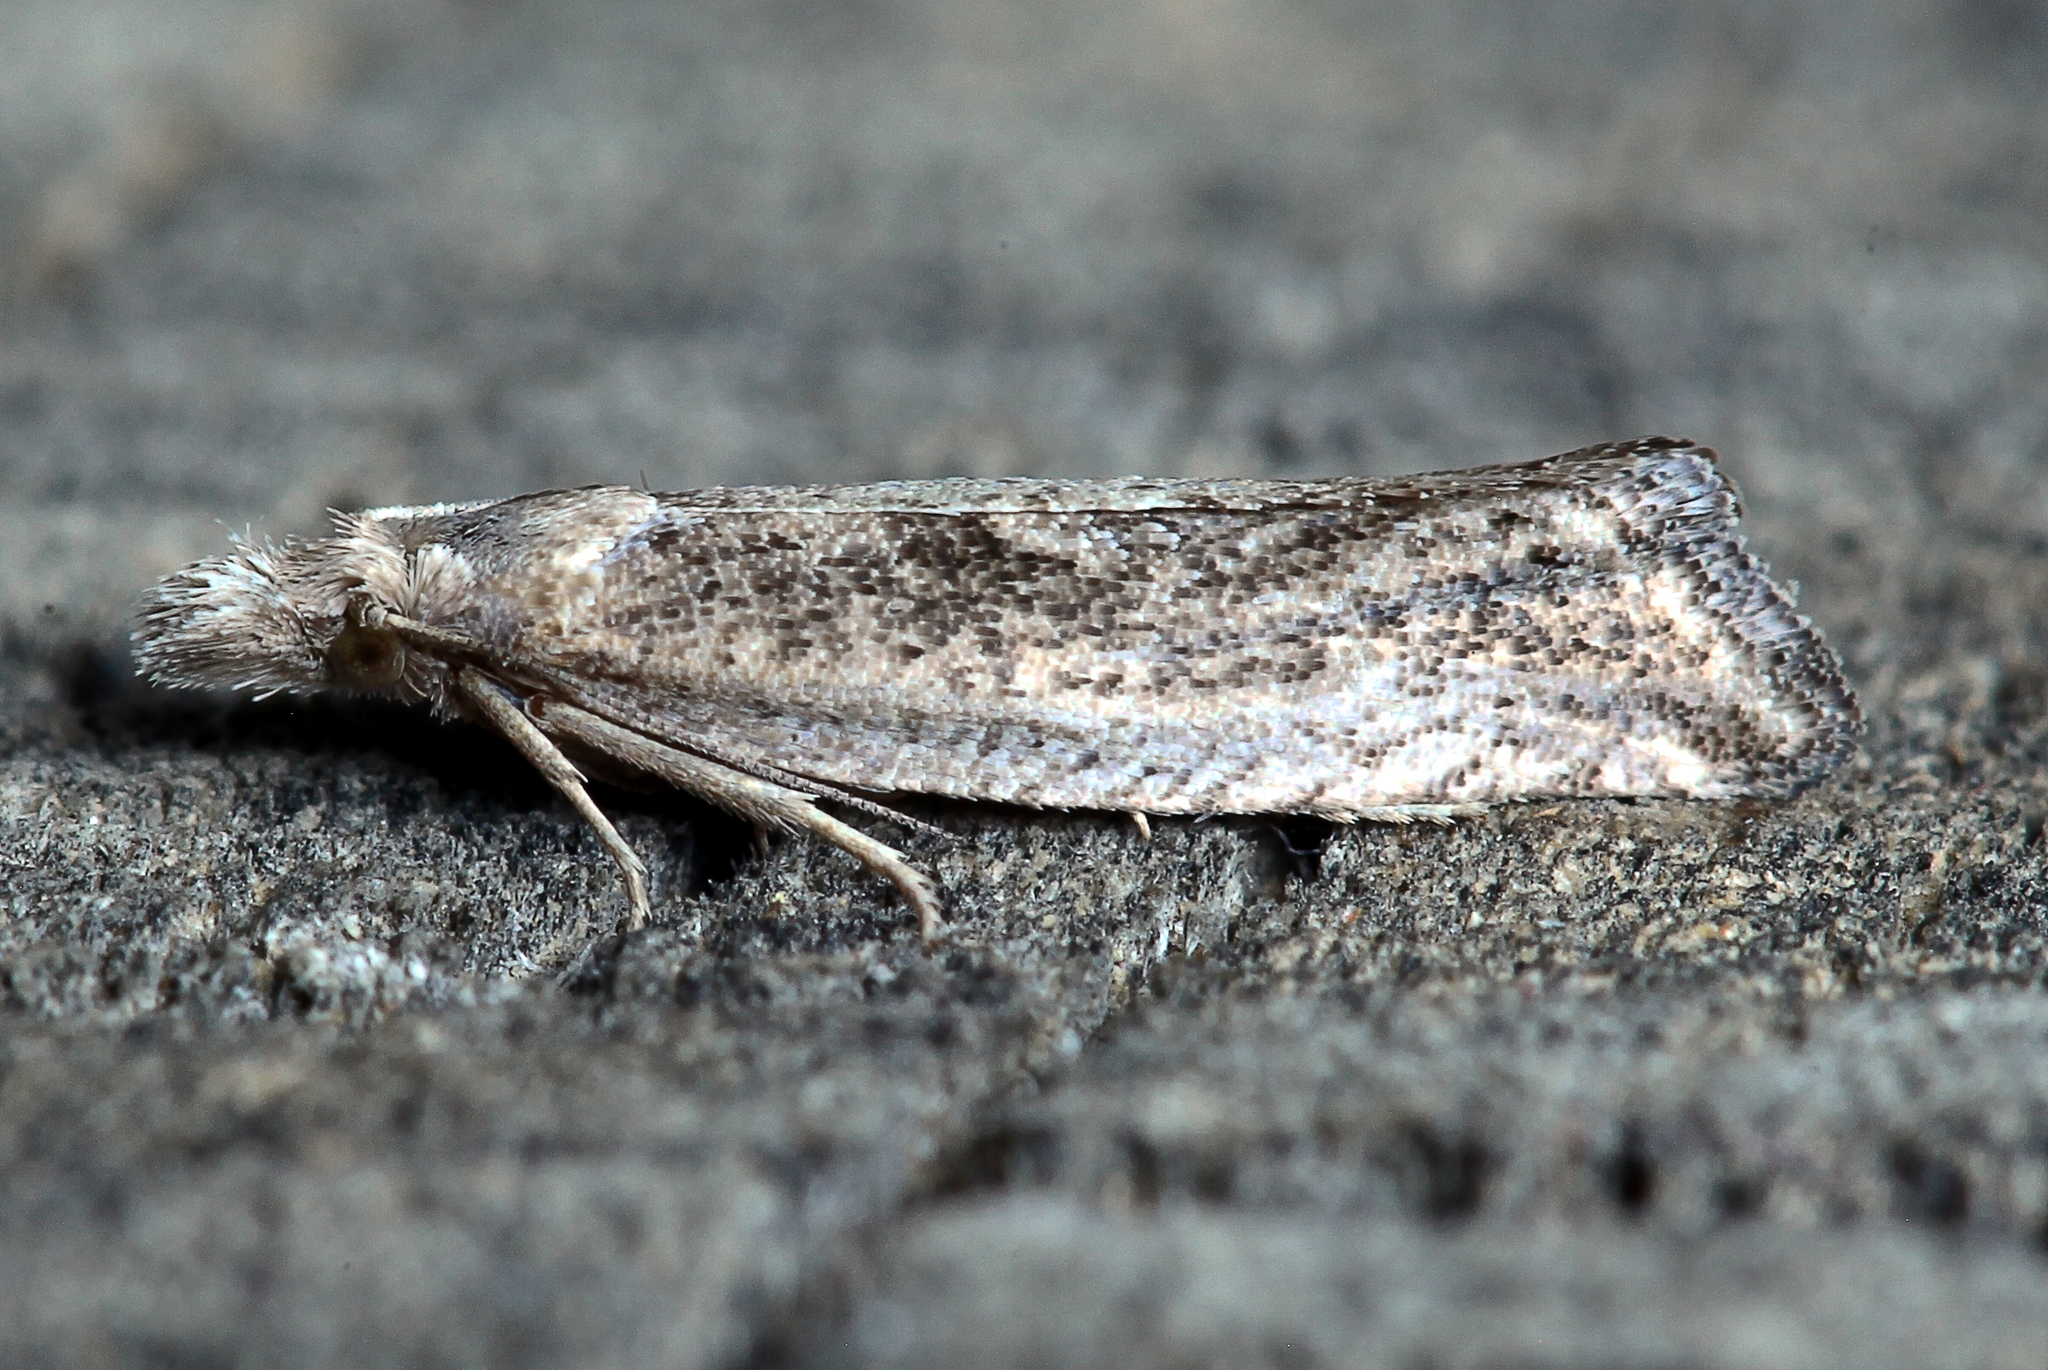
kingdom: Animalia
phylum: Arthropoda
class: Insecta
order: Lepidoptera
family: Tortricidae
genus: Epibactra
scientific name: Epibactra immundana
